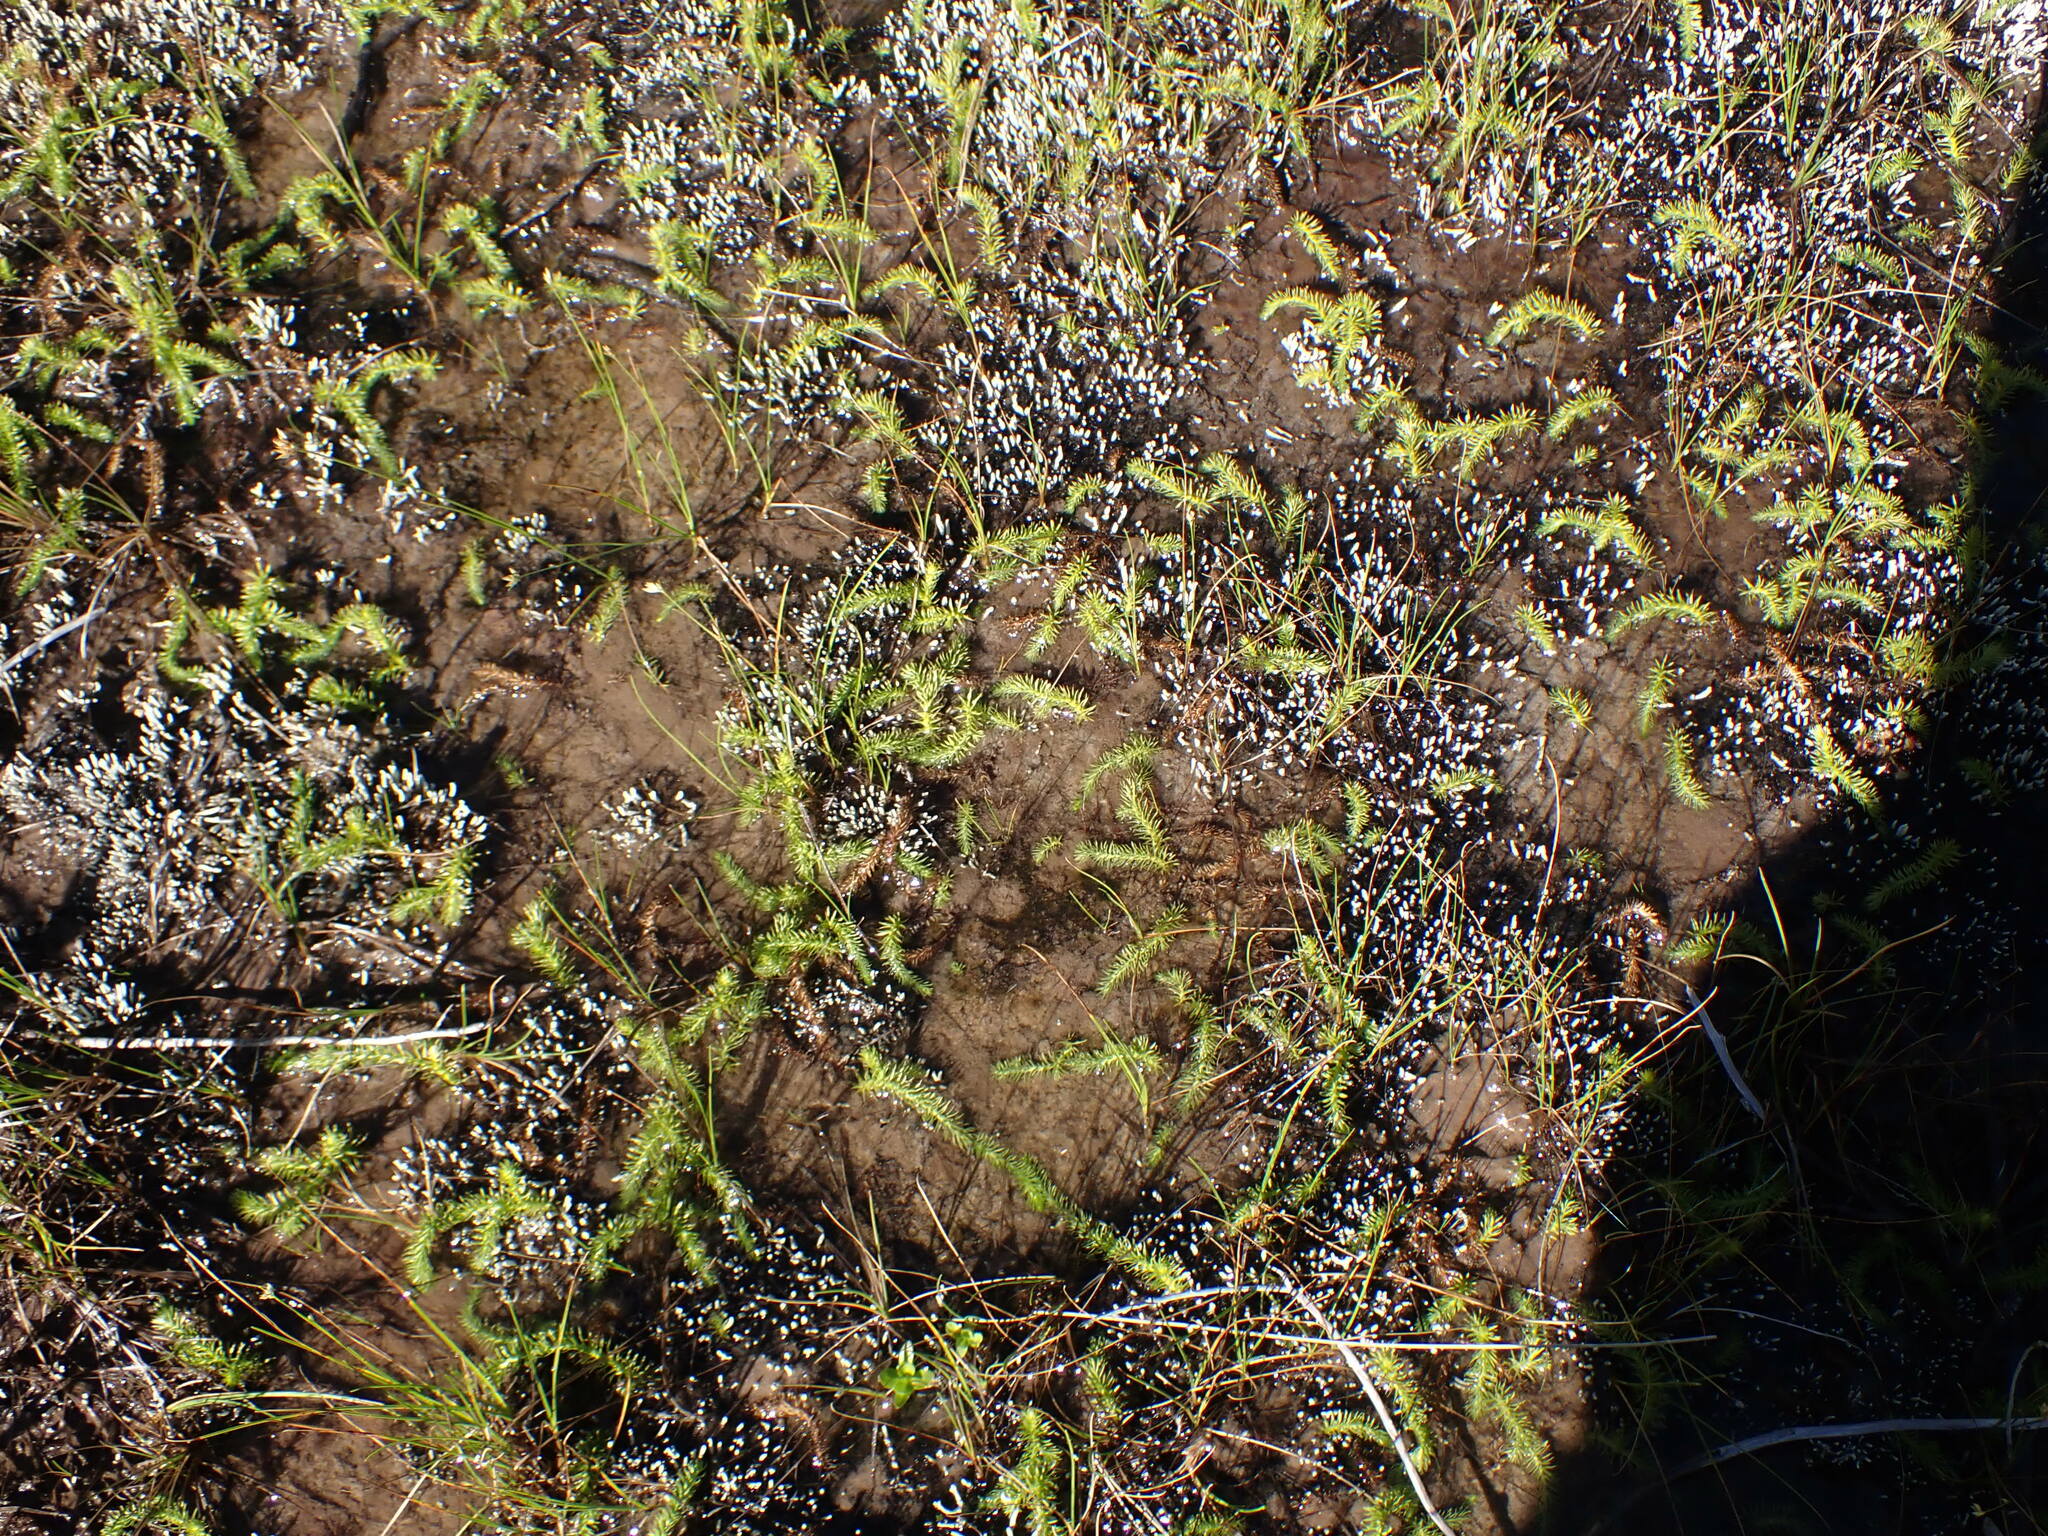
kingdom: Plantae
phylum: Tracheophyta
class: Lycopodiopsida
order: Lycopodiales
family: Lycopodiaceae
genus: Lycopodiella
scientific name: Lycopodiella inundata
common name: Marsh clubmoss
